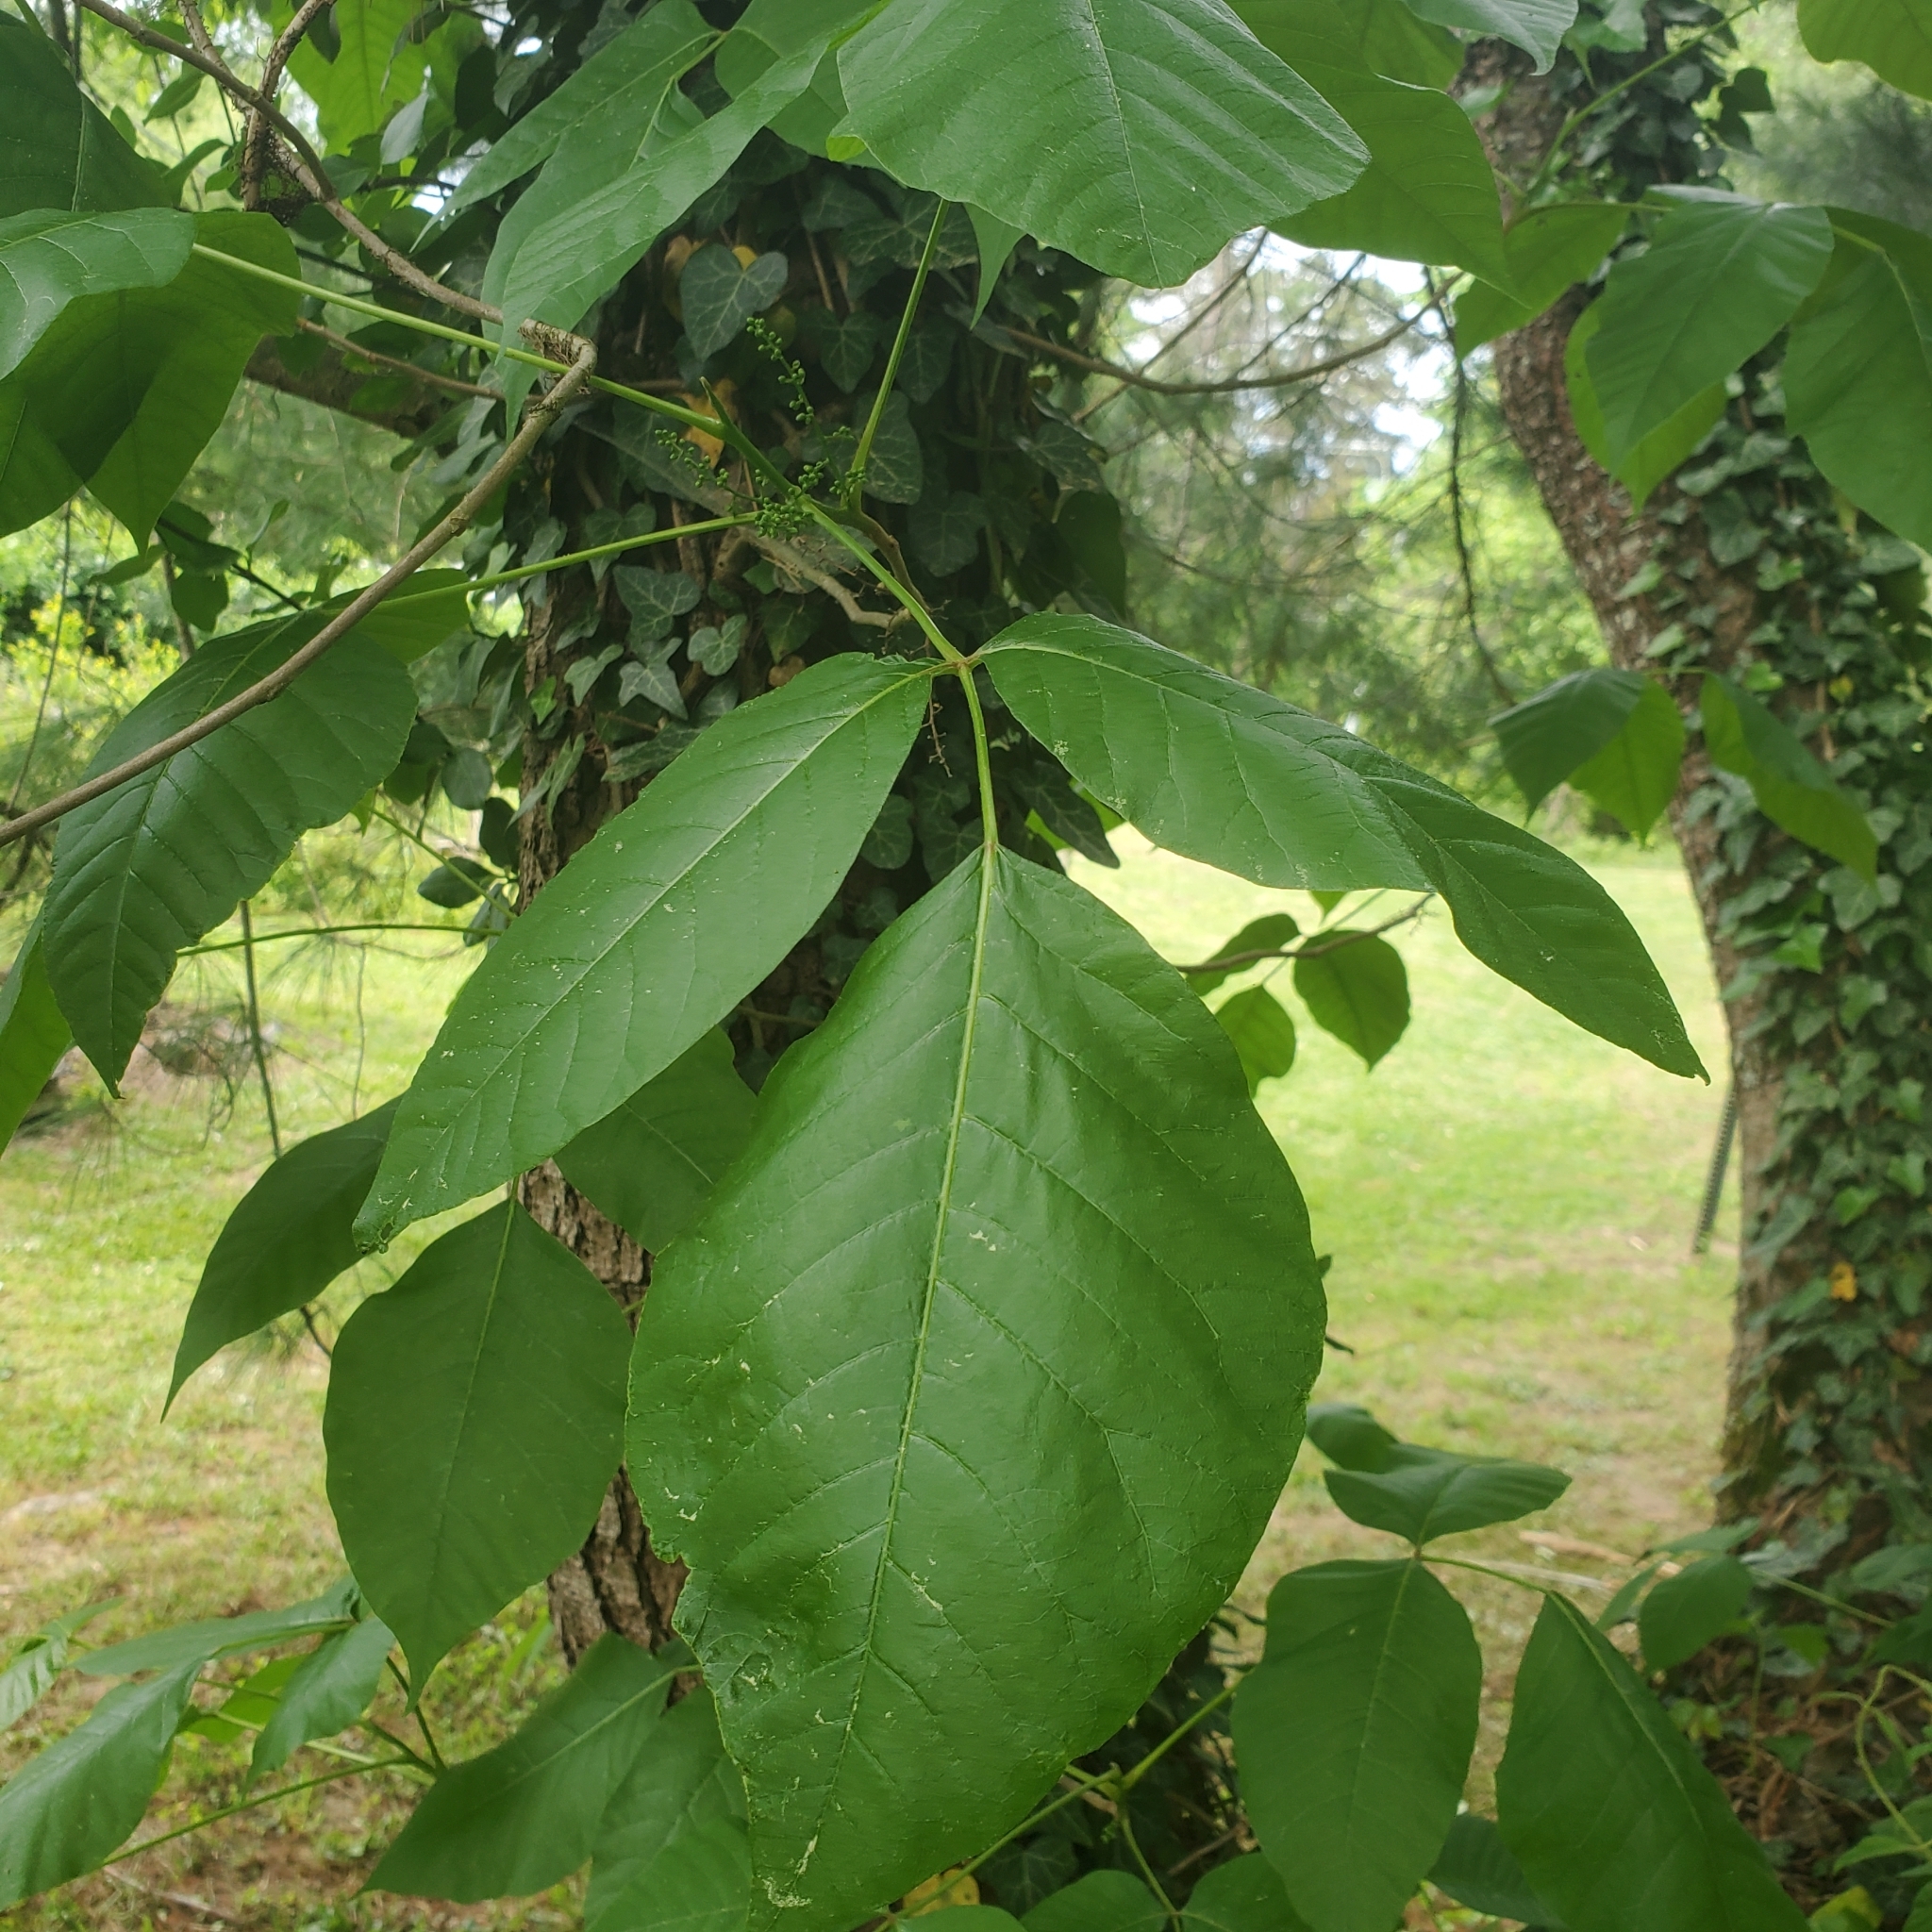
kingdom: Plantae
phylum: Tracheophyta
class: Magnoliopsida
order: Sapindales
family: Anacardiaceae
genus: Toxicodendron
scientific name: Toxicodendron radicans
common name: Poison ivy
